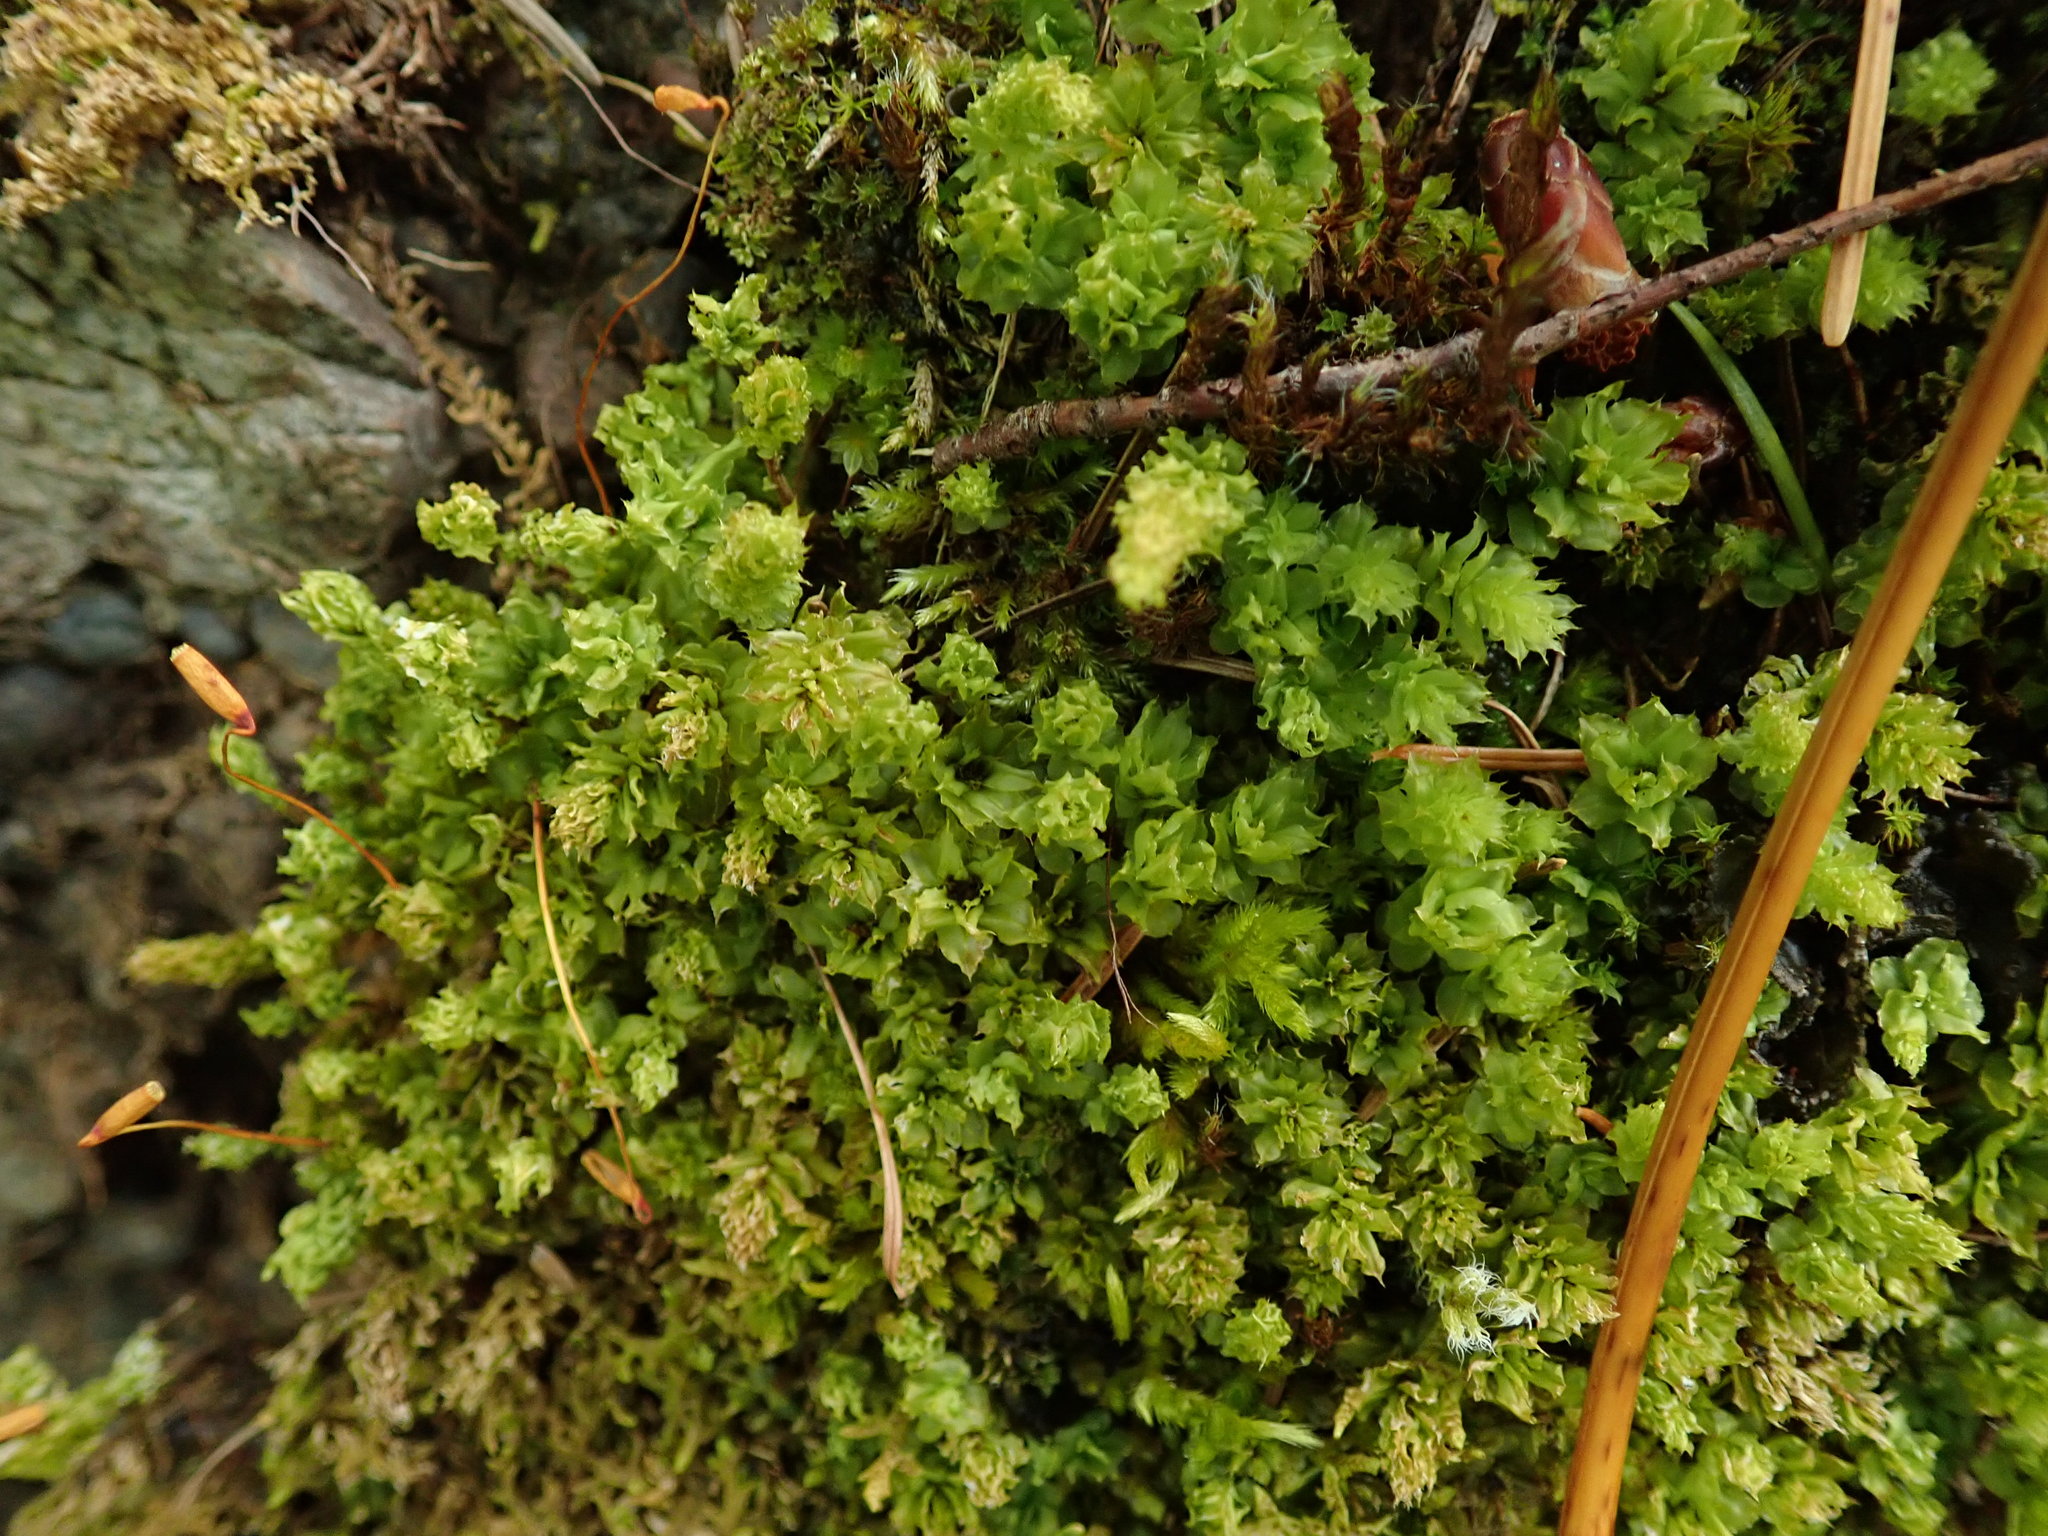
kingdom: Plantae
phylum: Bryophyta
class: Bryopsida
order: Bryales
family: Mniaceae
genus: Plagiomnium
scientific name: Plagiomnium venustum
